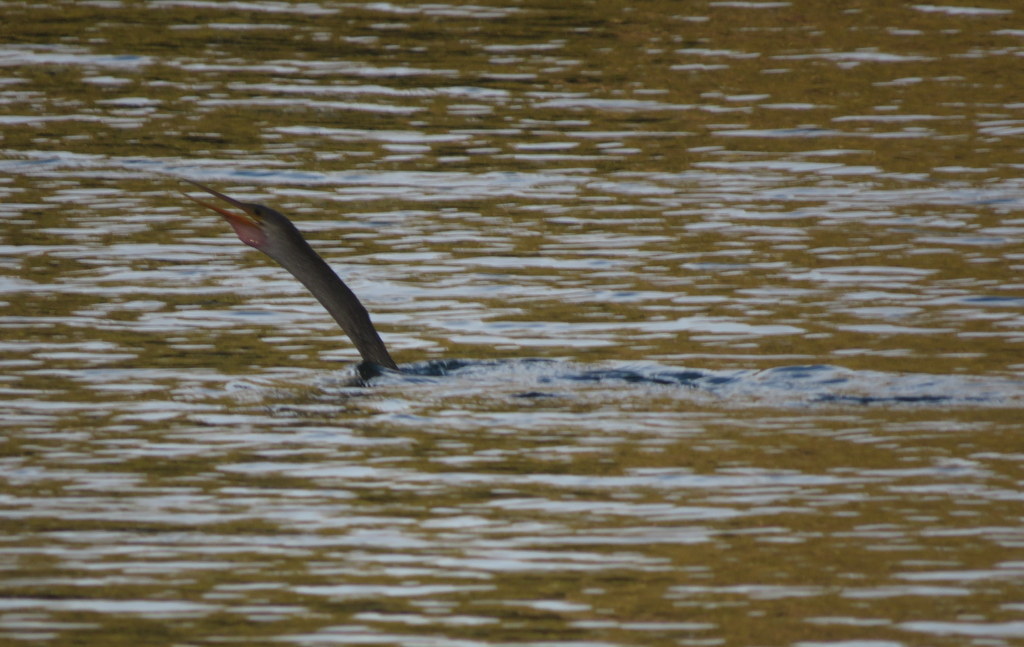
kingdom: Animalia
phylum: Chordata
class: Aves
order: Suliformes
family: Anhingidae
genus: Anhinga
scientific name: Anhinga anhinga
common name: Anhinga
